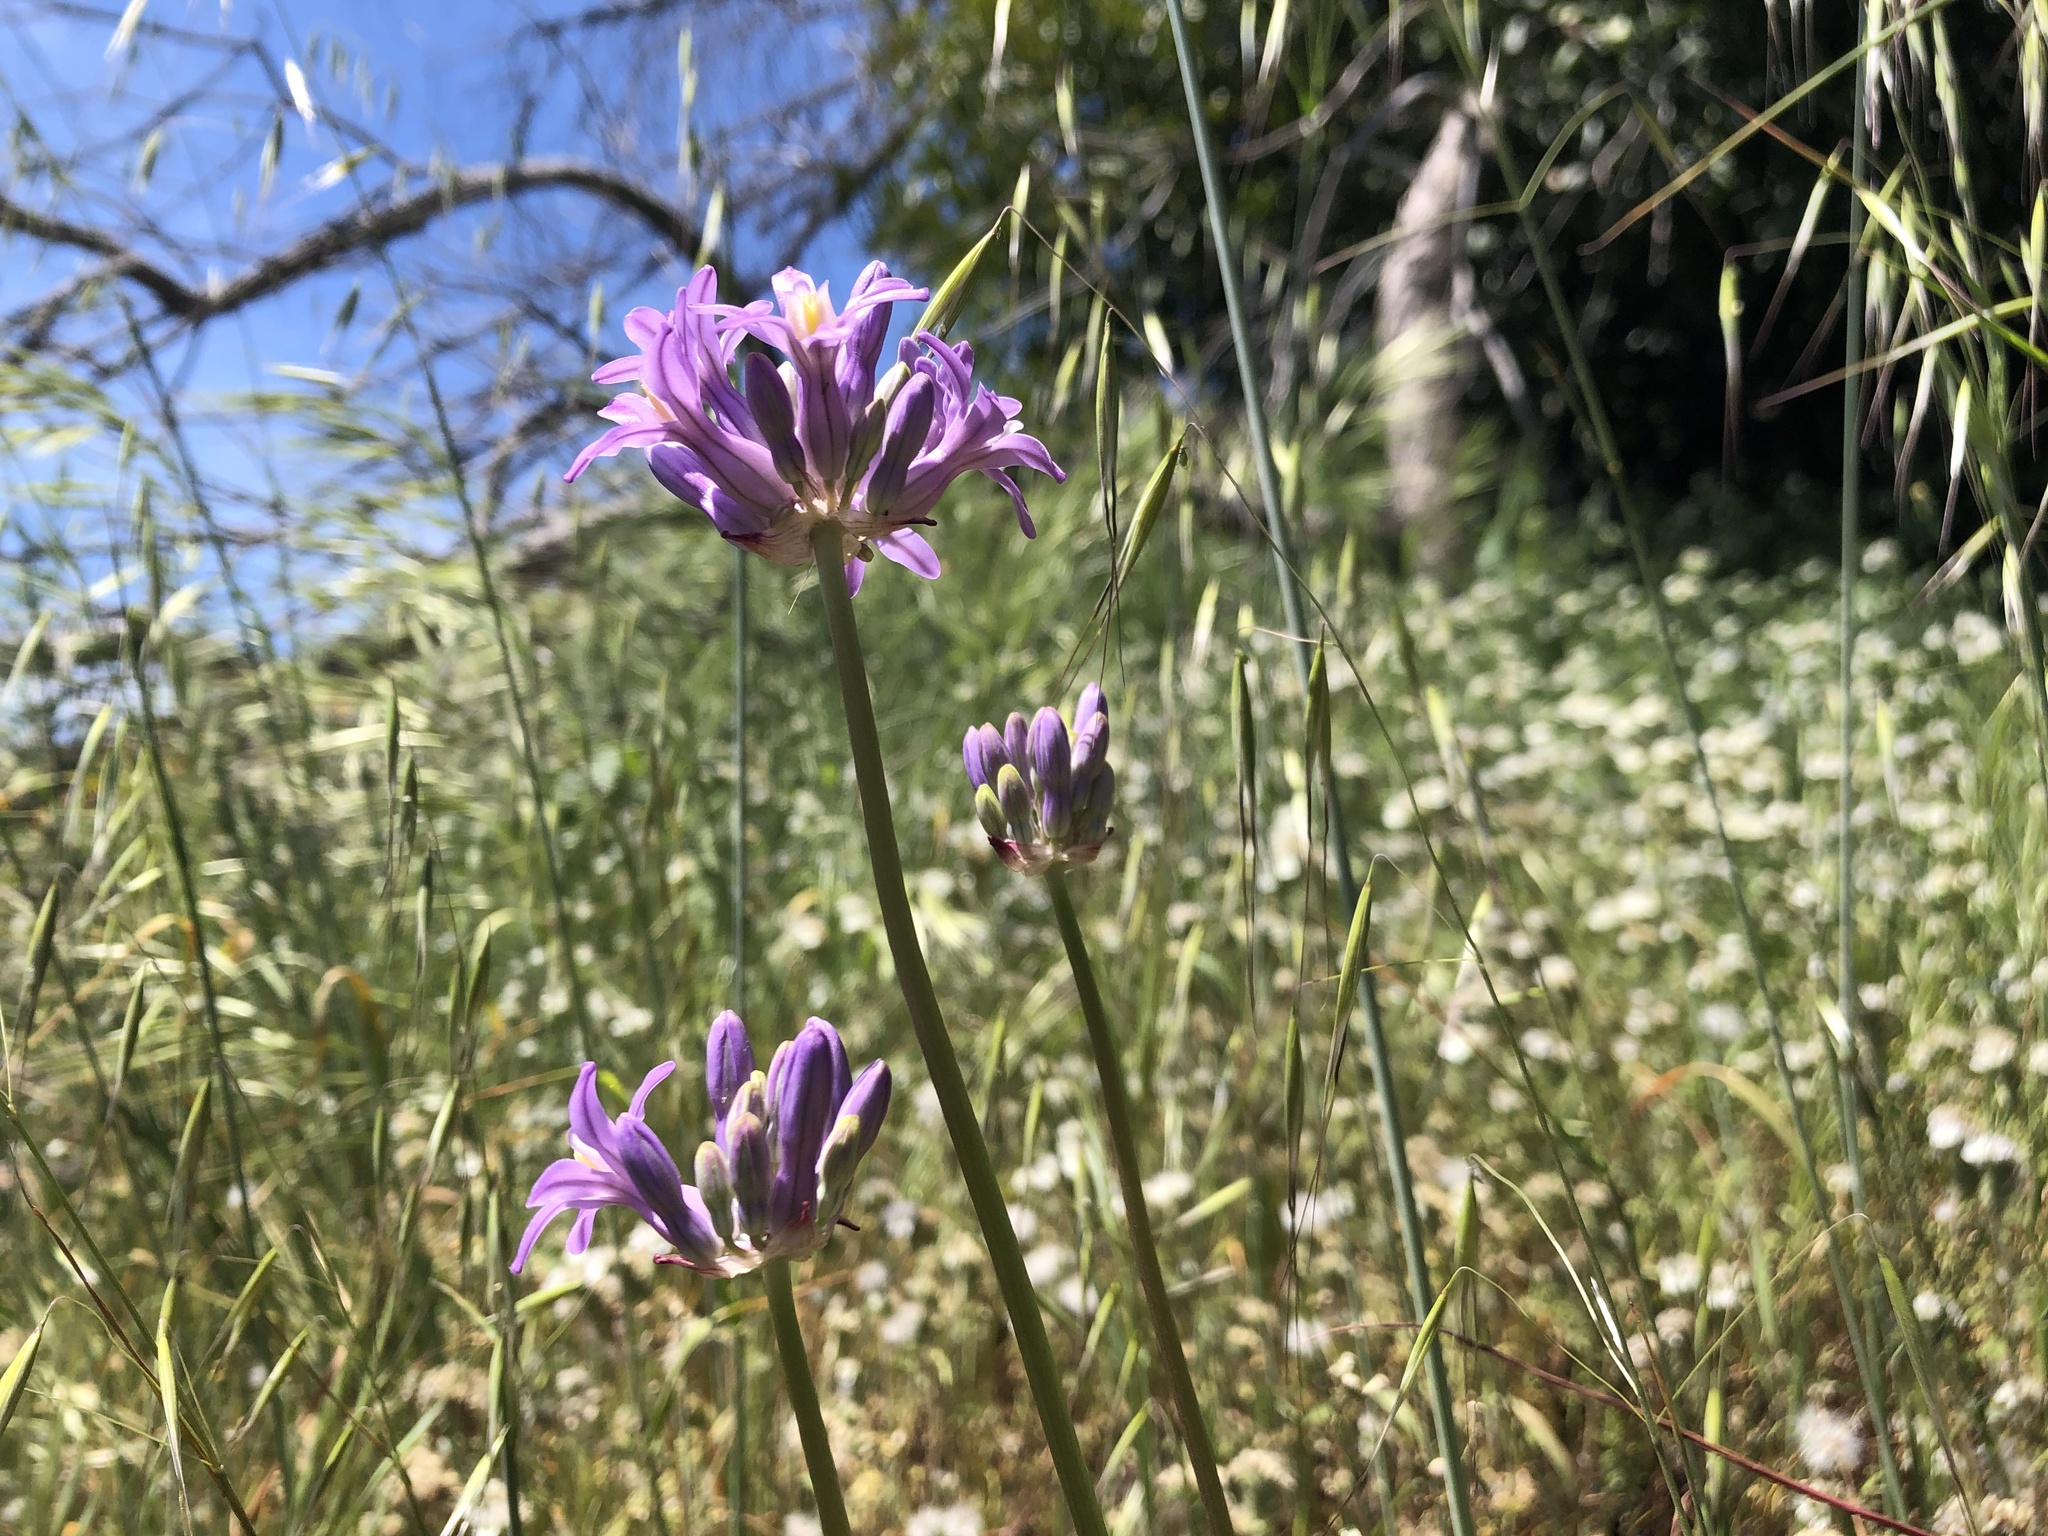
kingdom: Plantae
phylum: Tracheophyta
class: Liliopsida
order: Asparagales
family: Asparagaceae
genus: Dichelostemma
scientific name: Dichelostemma multiflorum
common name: Round-tooth ookow
